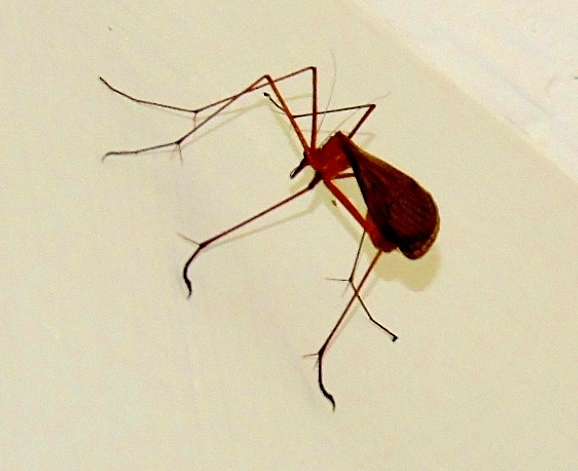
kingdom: Animalia
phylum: Arthropoda
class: Insecta
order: Mecoptera
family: Bittacidae
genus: Bittacus
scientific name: Bittacus
